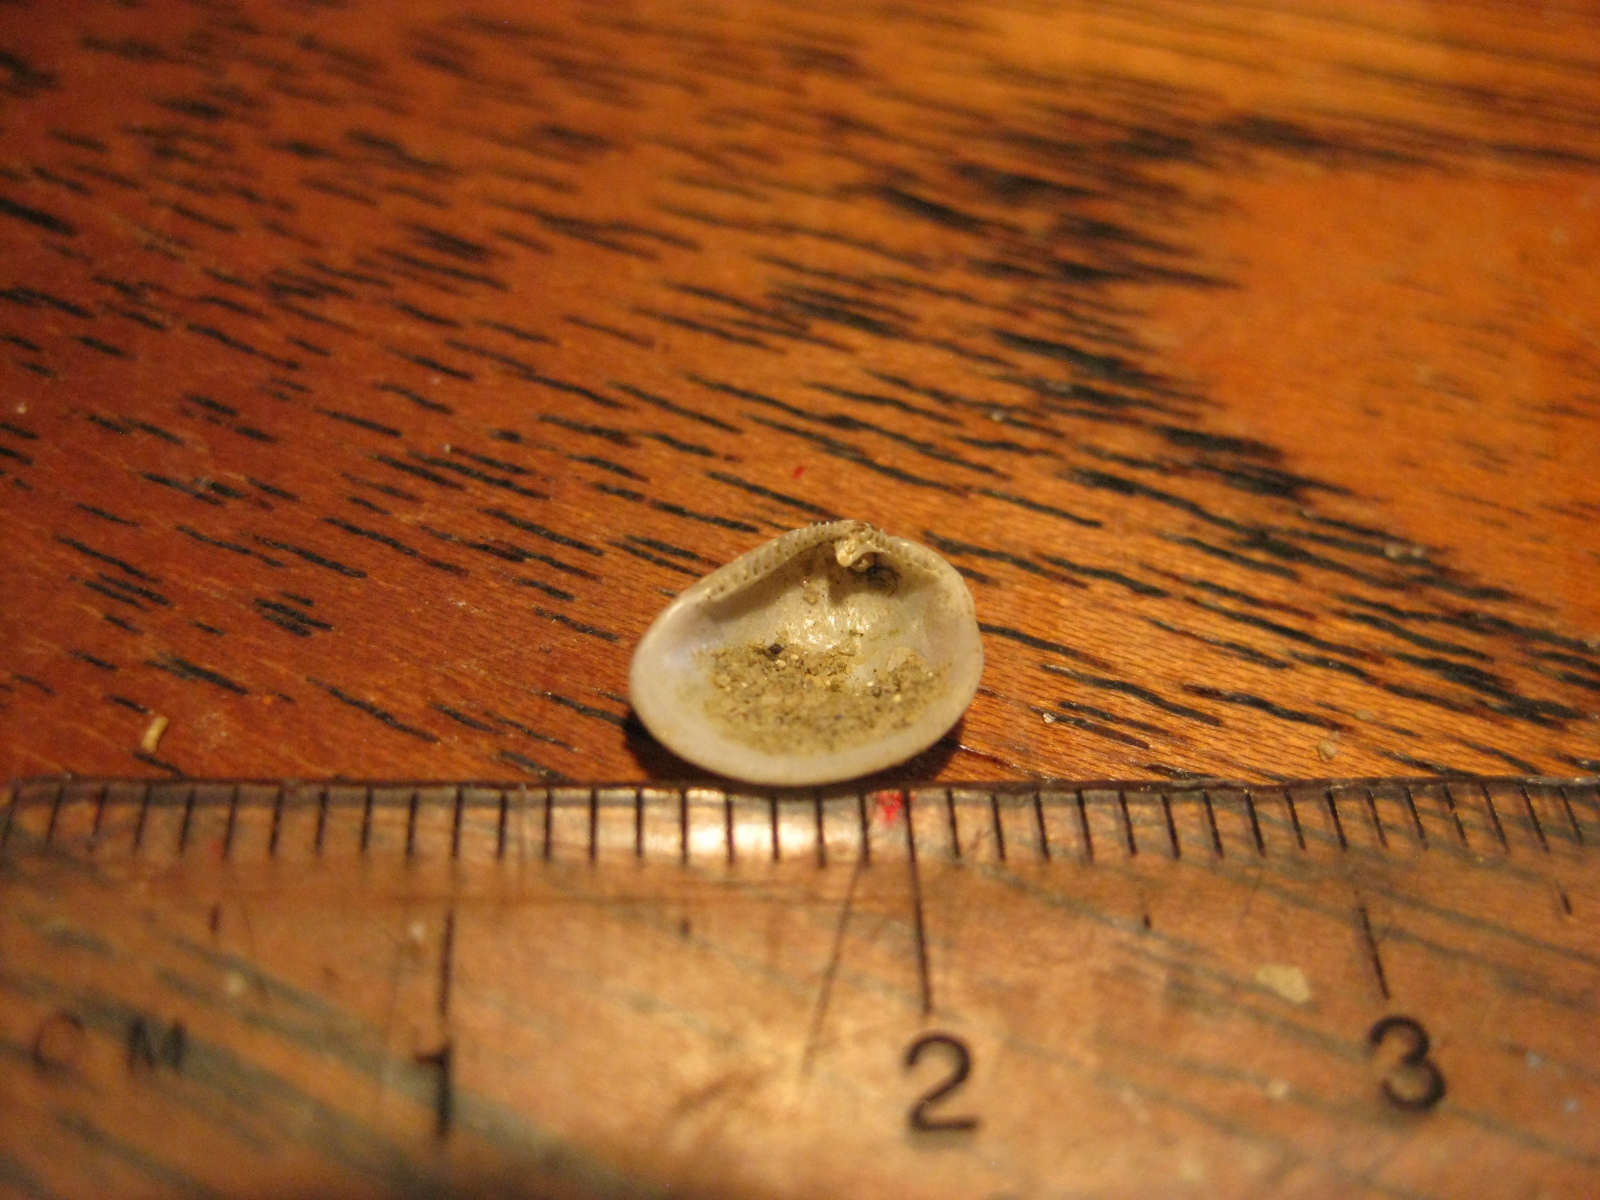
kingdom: Animalia
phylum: Mollusca
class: Bivalvia
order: Nuculida
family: Nuculidae
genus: Linucula
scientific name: Linucula hartvigiana
